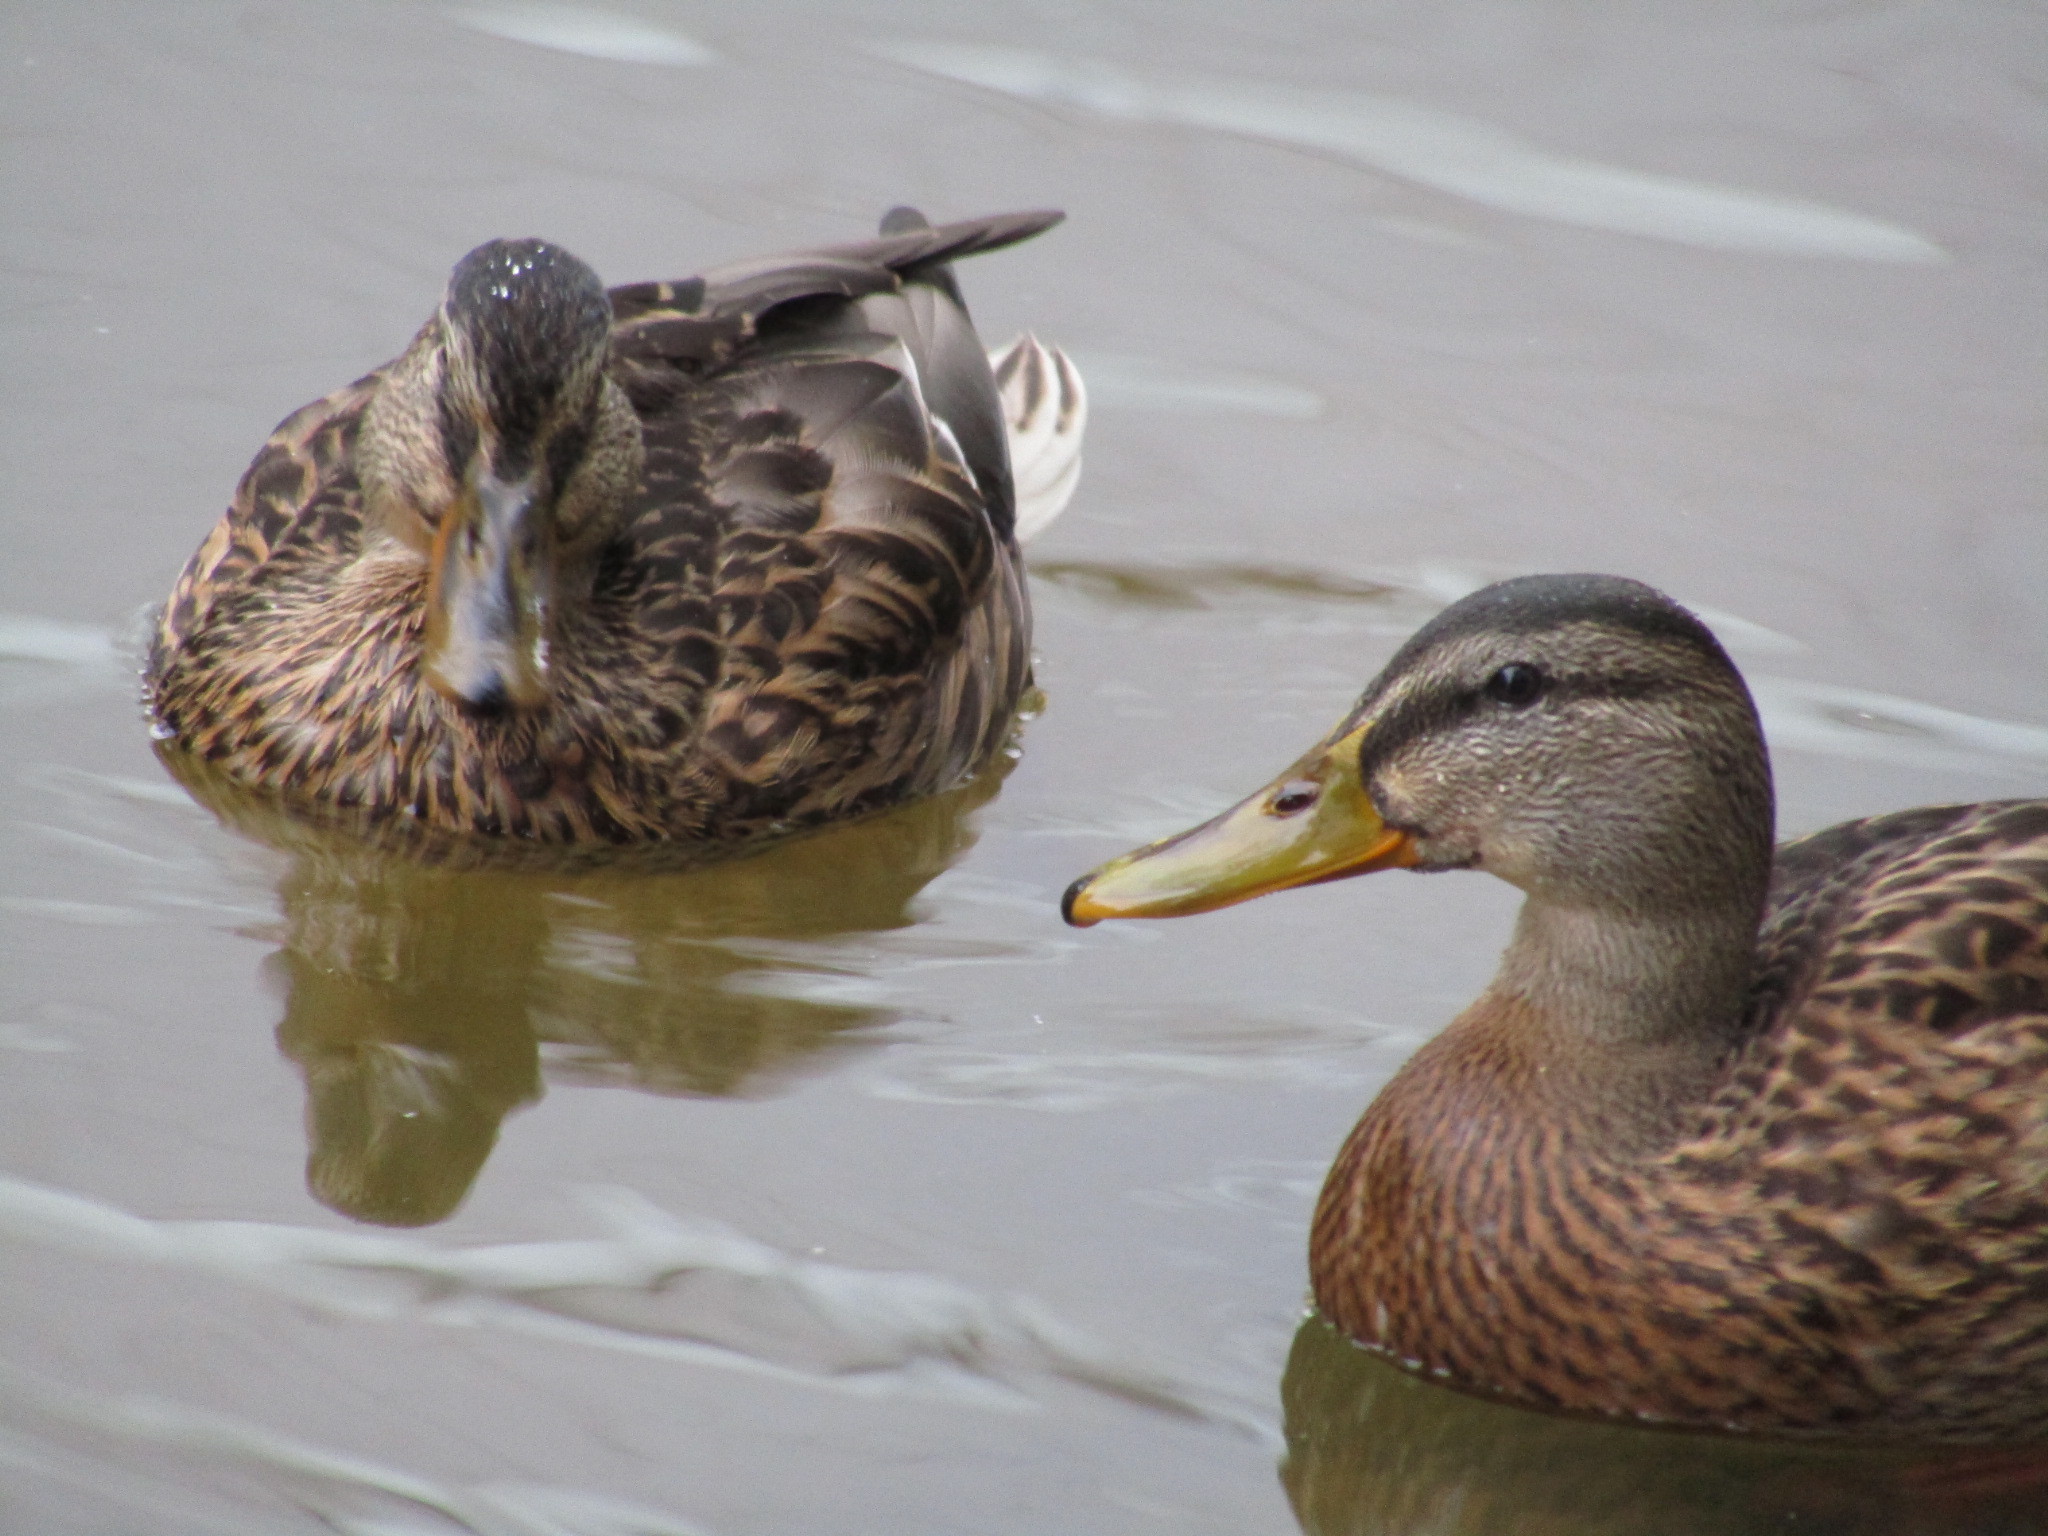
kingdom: Animalia
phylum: Chordata
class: Aves
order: Anseriformes
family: Anatidae
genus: Anas
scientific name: Anas platyrhynchos
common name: Mallard
